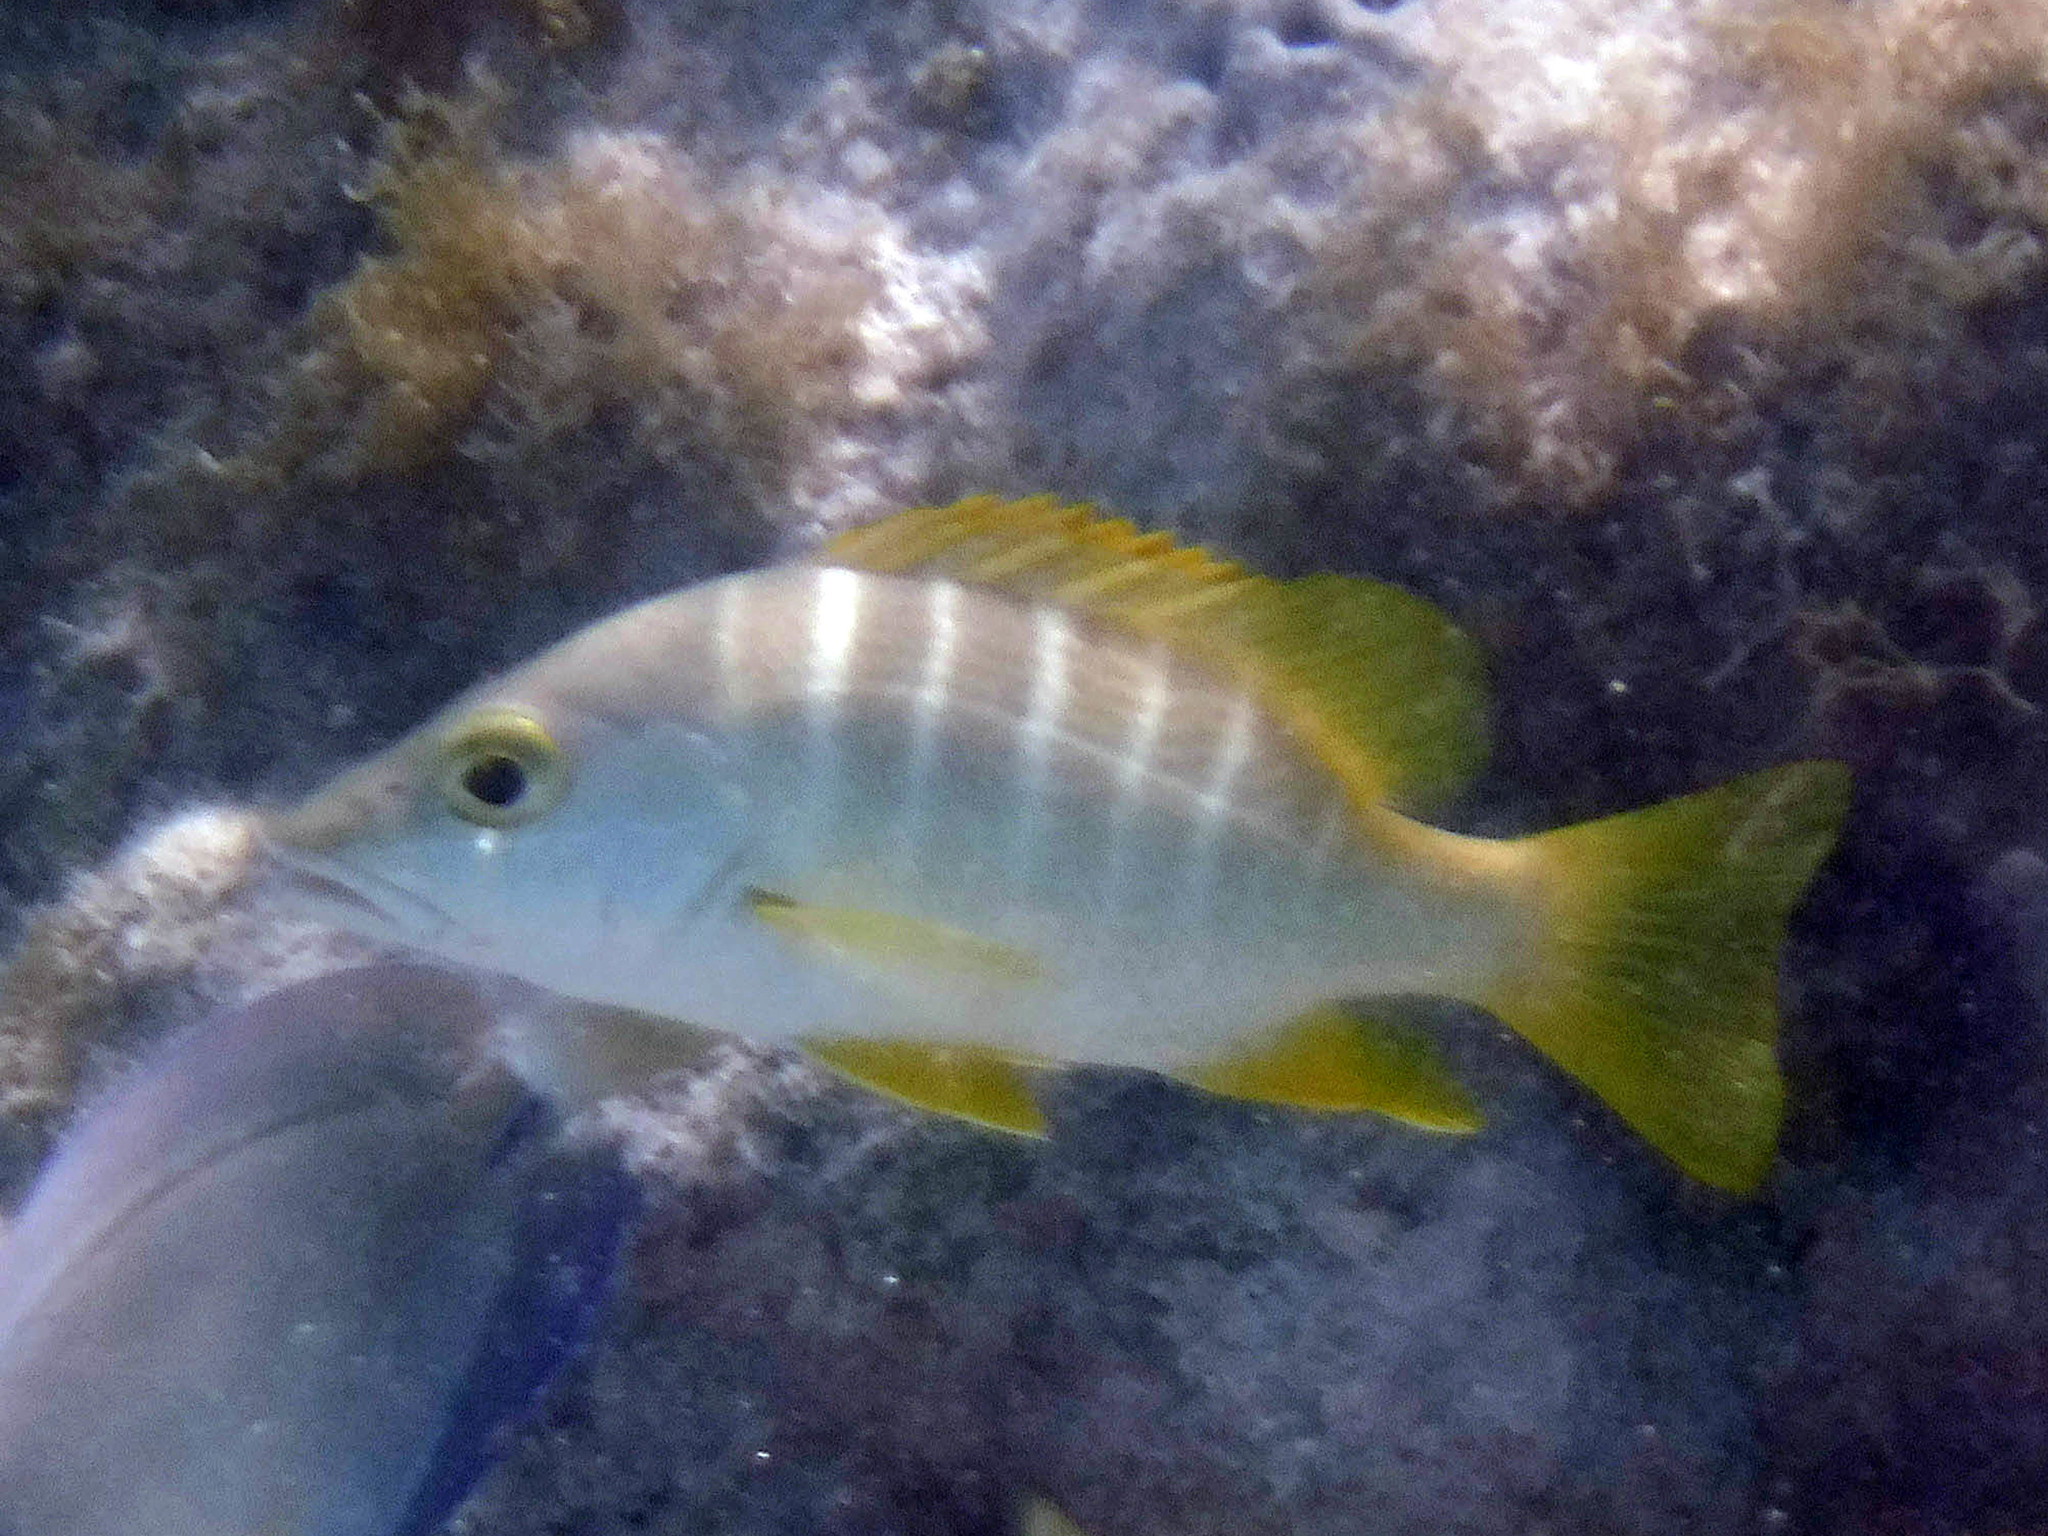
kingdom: Animalia
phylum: Chordata
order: Perciformes
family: Lutjanidae
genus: Lutjanus
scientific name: Lutjanus apodus
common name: Schoolmaster
